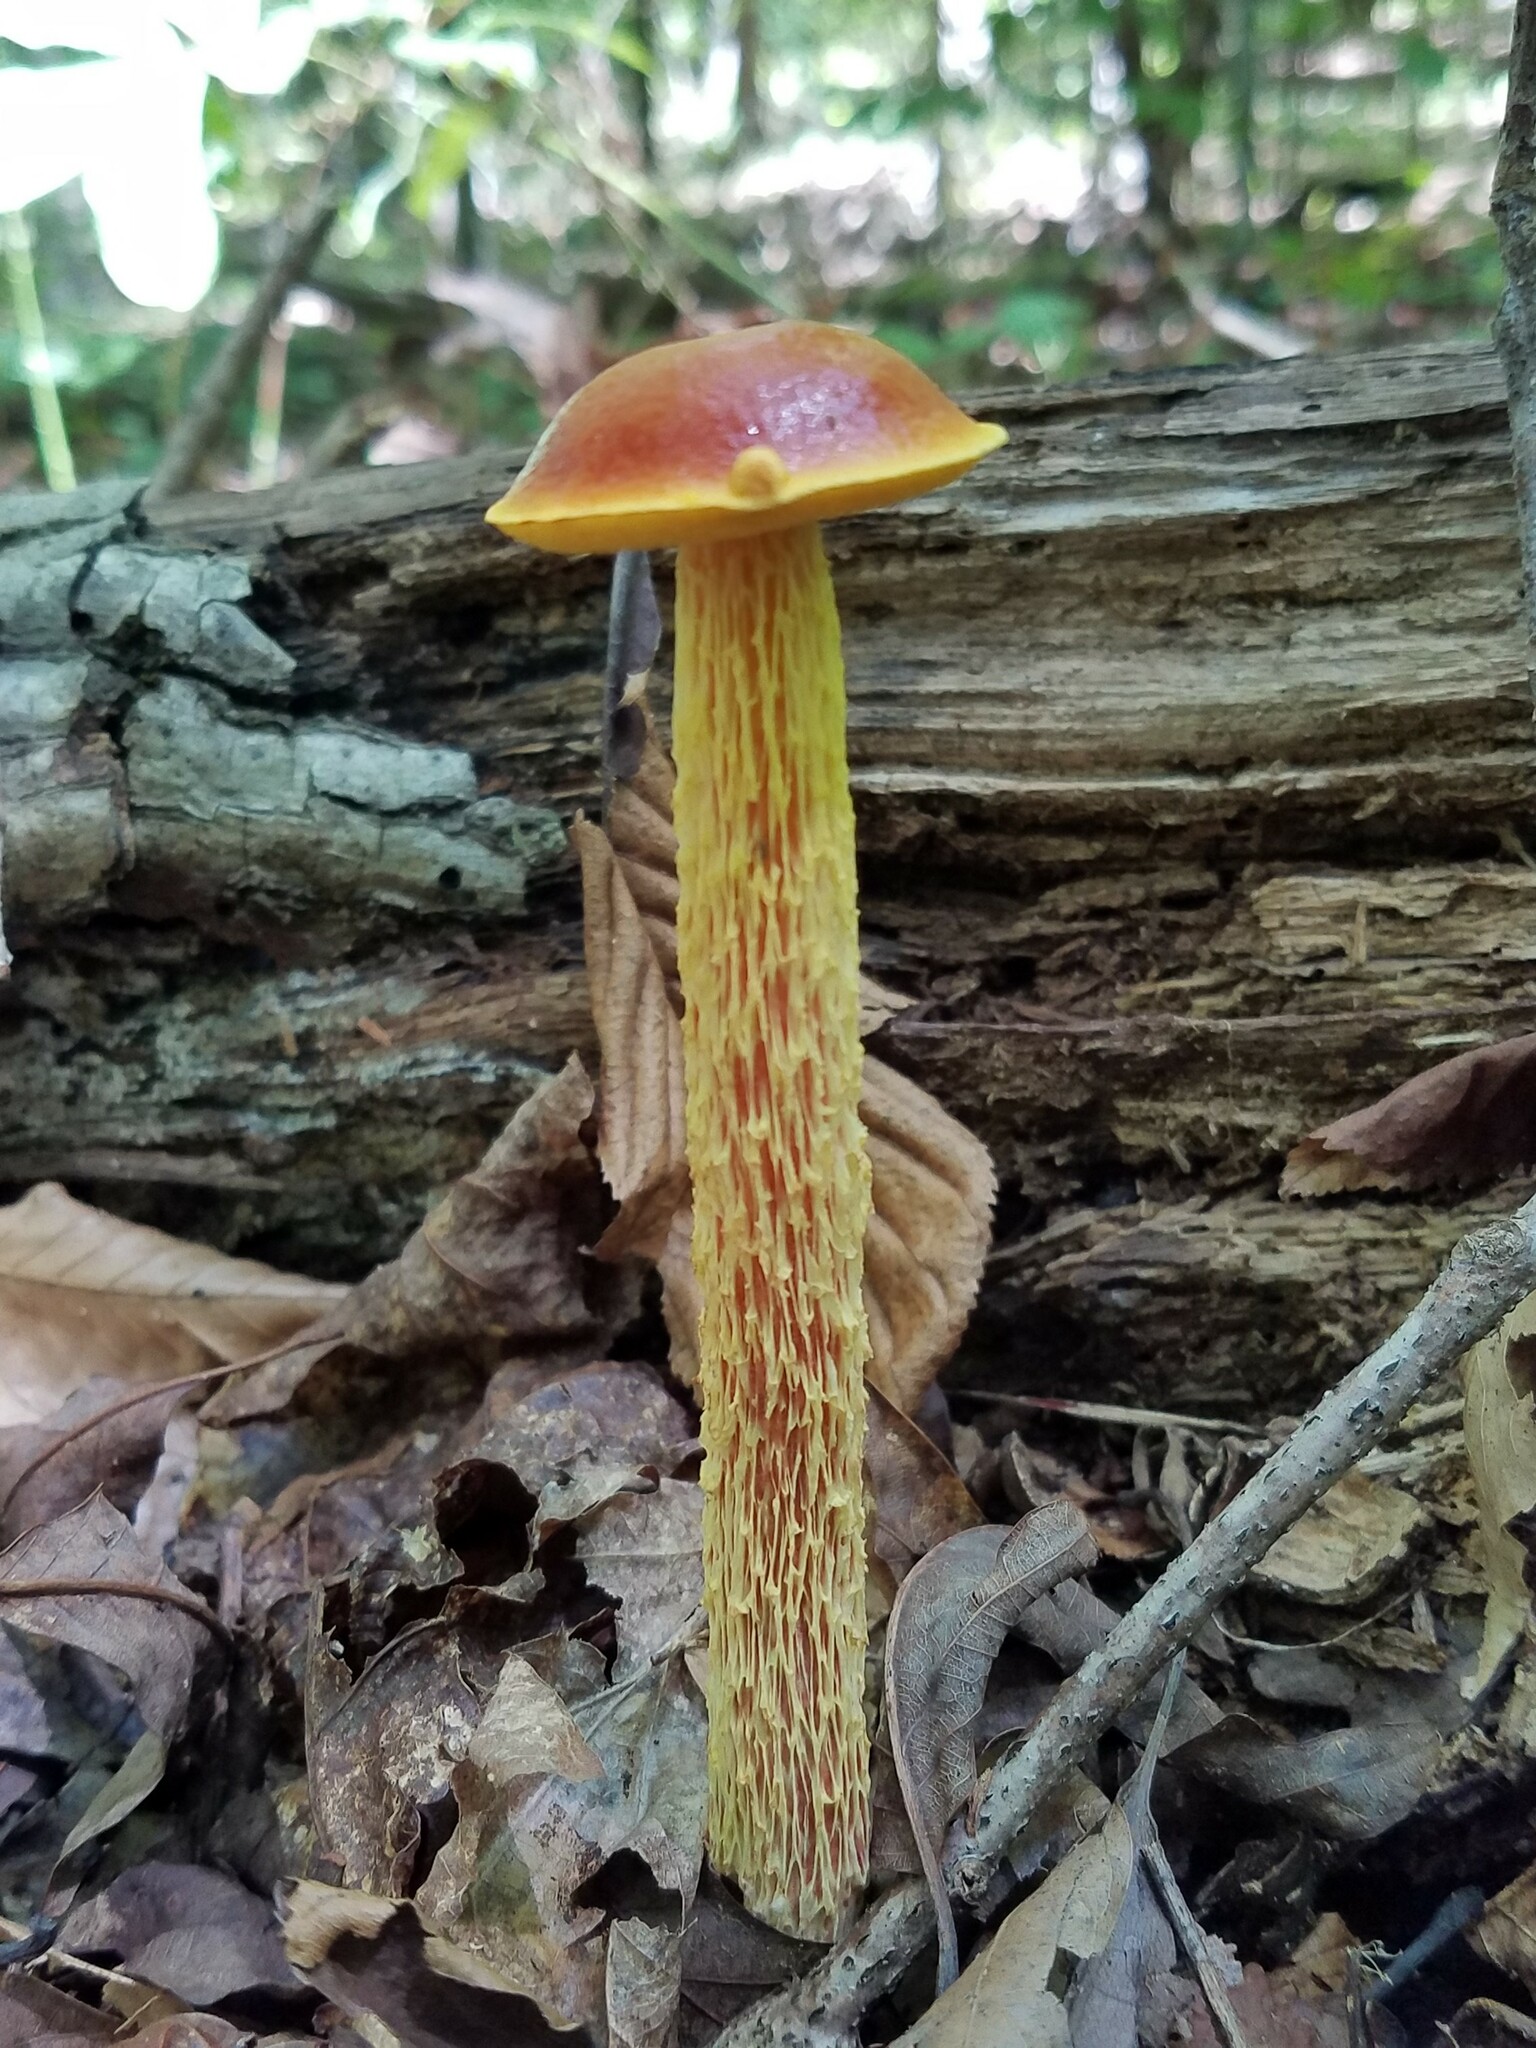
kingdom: Fungi
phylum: Basidiomycota
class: Agaricomycetes
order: Boletales
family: Boletaceae
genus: Aureoboletus
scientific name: Aureoboletus betula
